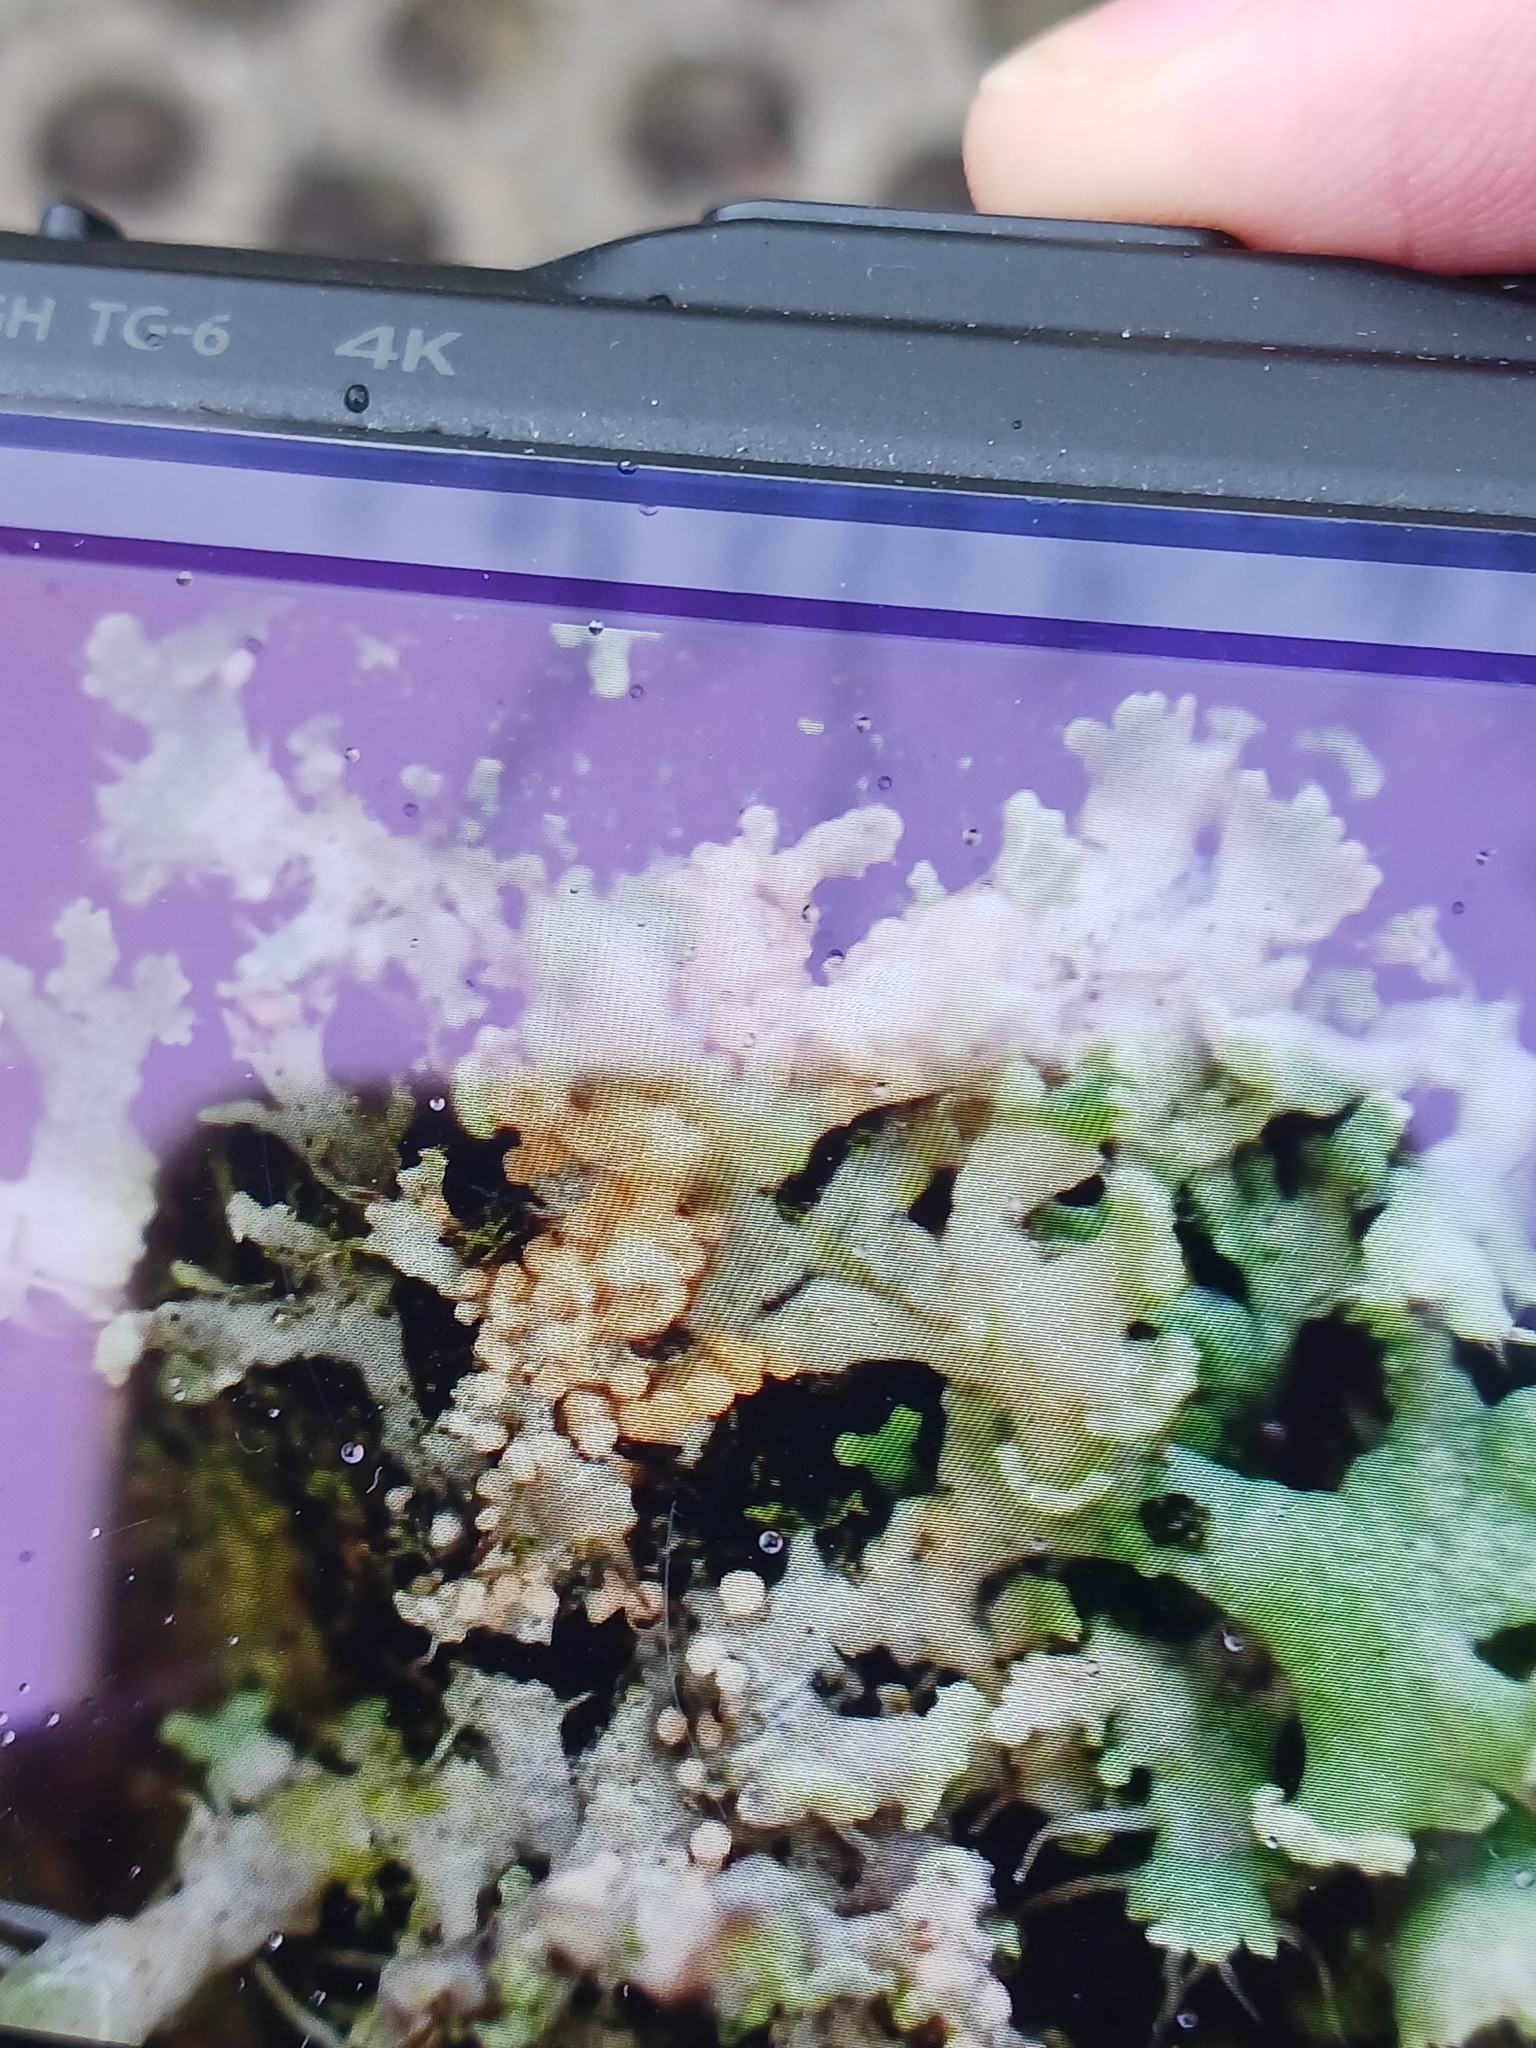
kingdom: Fungi
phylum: Basidiomycota
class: Agaricomycetes
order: Corticiales
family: Corticiaceae
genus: Erythricium
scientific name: Erythricium aurantiacum
